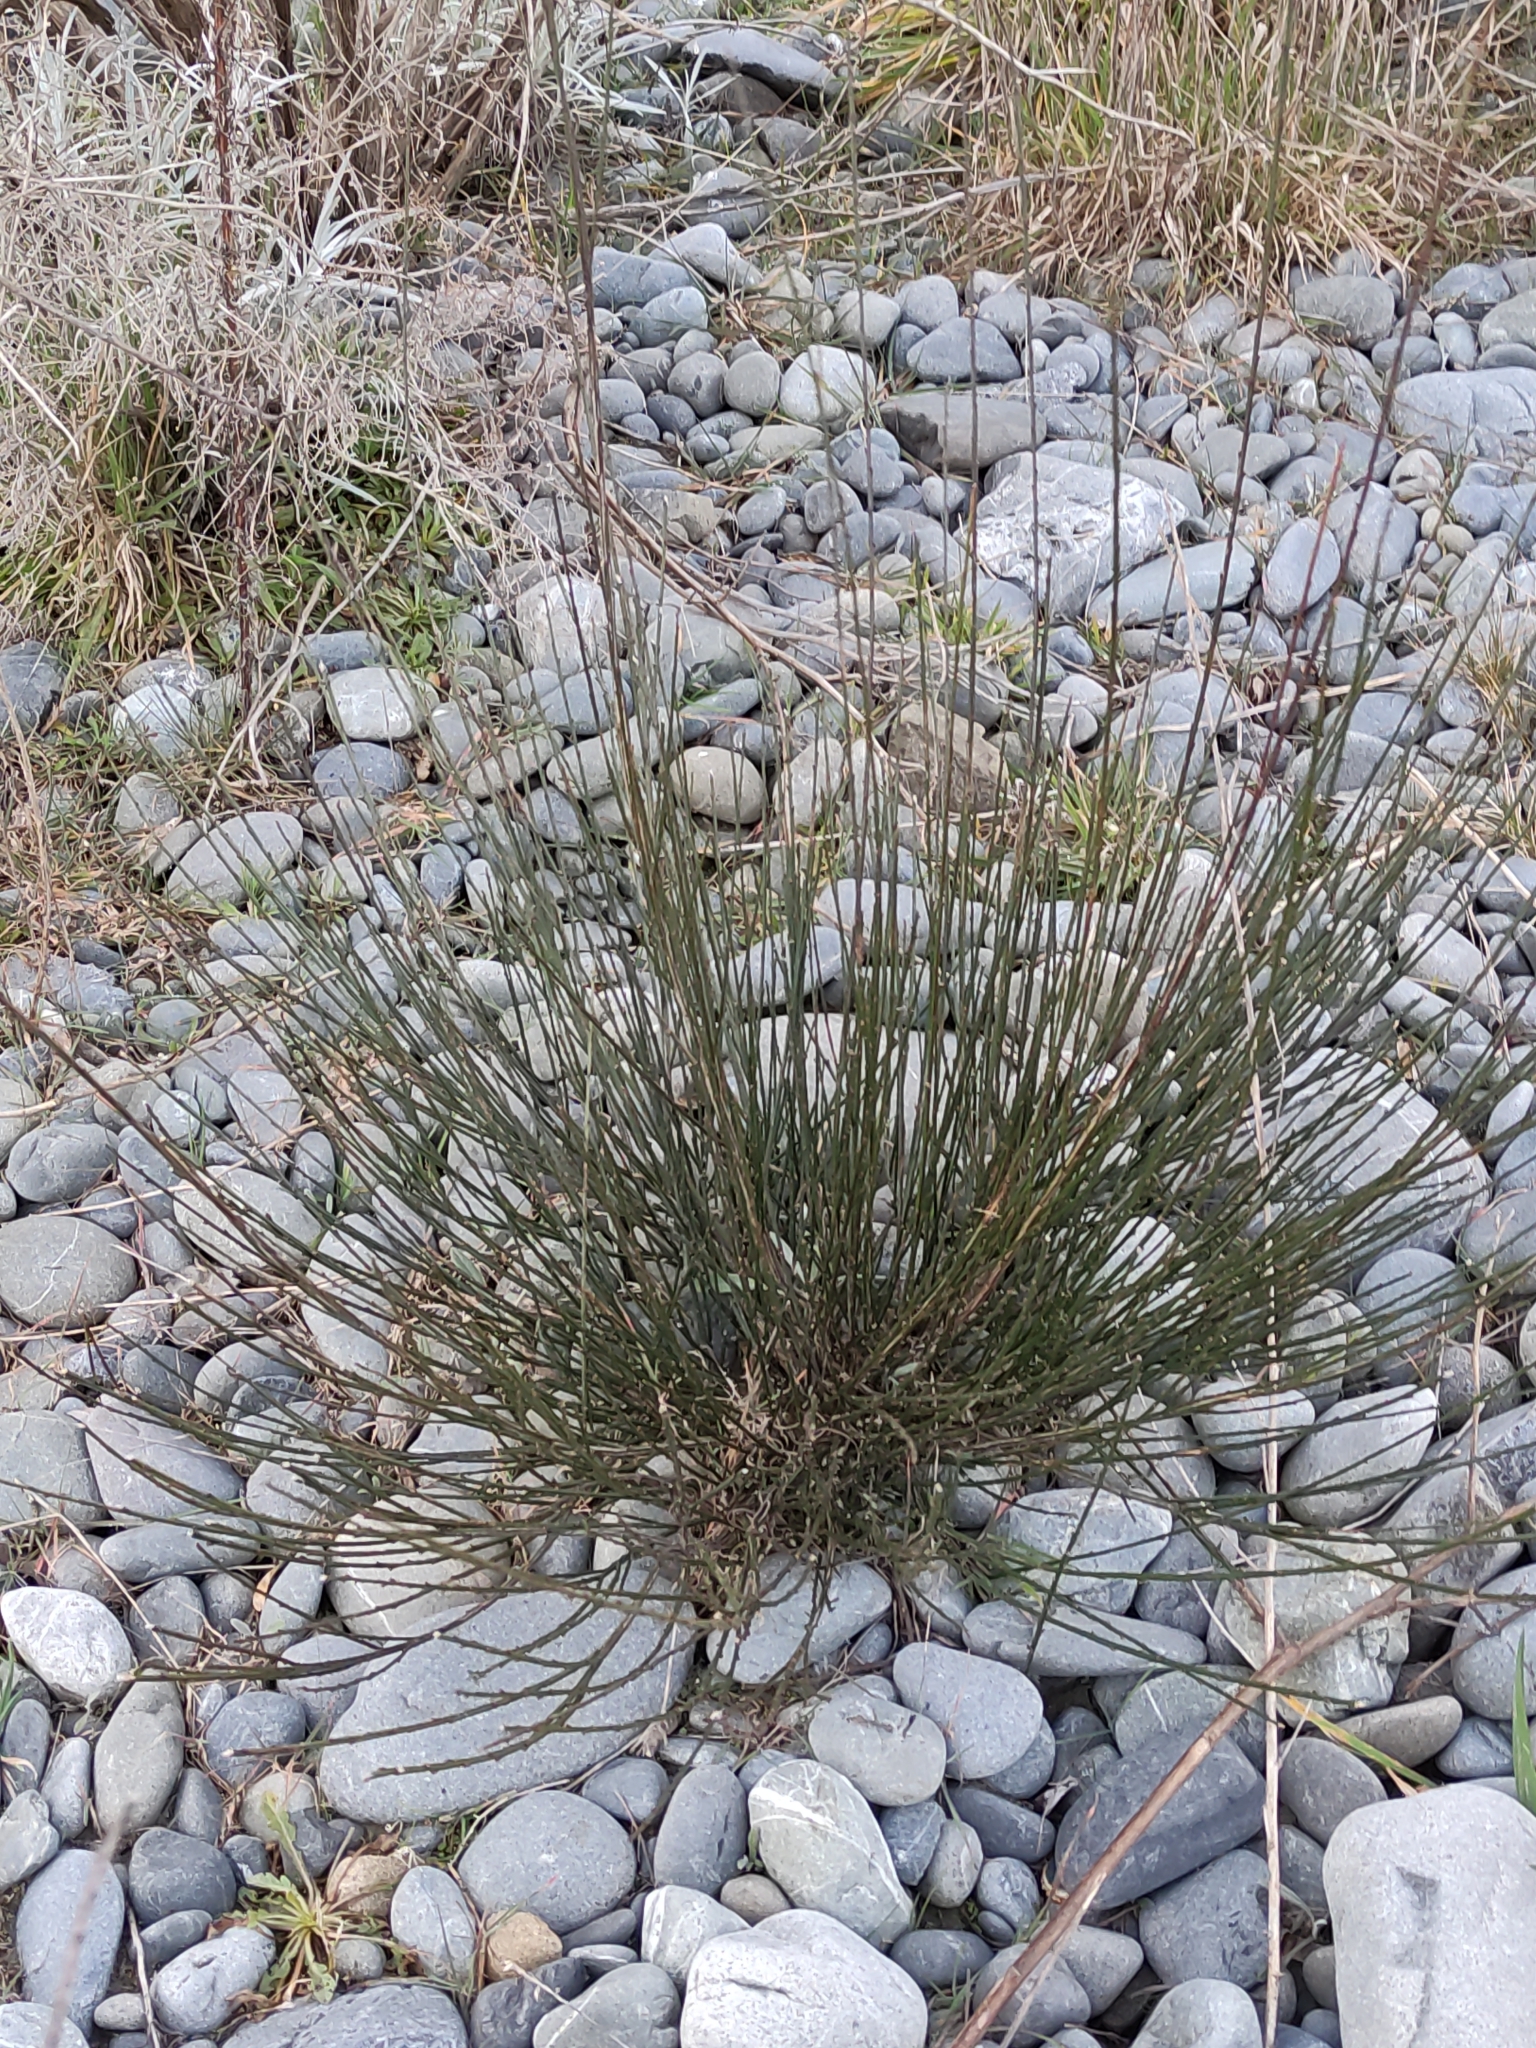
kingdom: Plantae
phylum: Tracheophyta
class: Magnoliopsida
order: Fabales
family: Fabaceae
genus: Cytisus
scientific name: Cytisus scoparius
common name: Scotch broom
